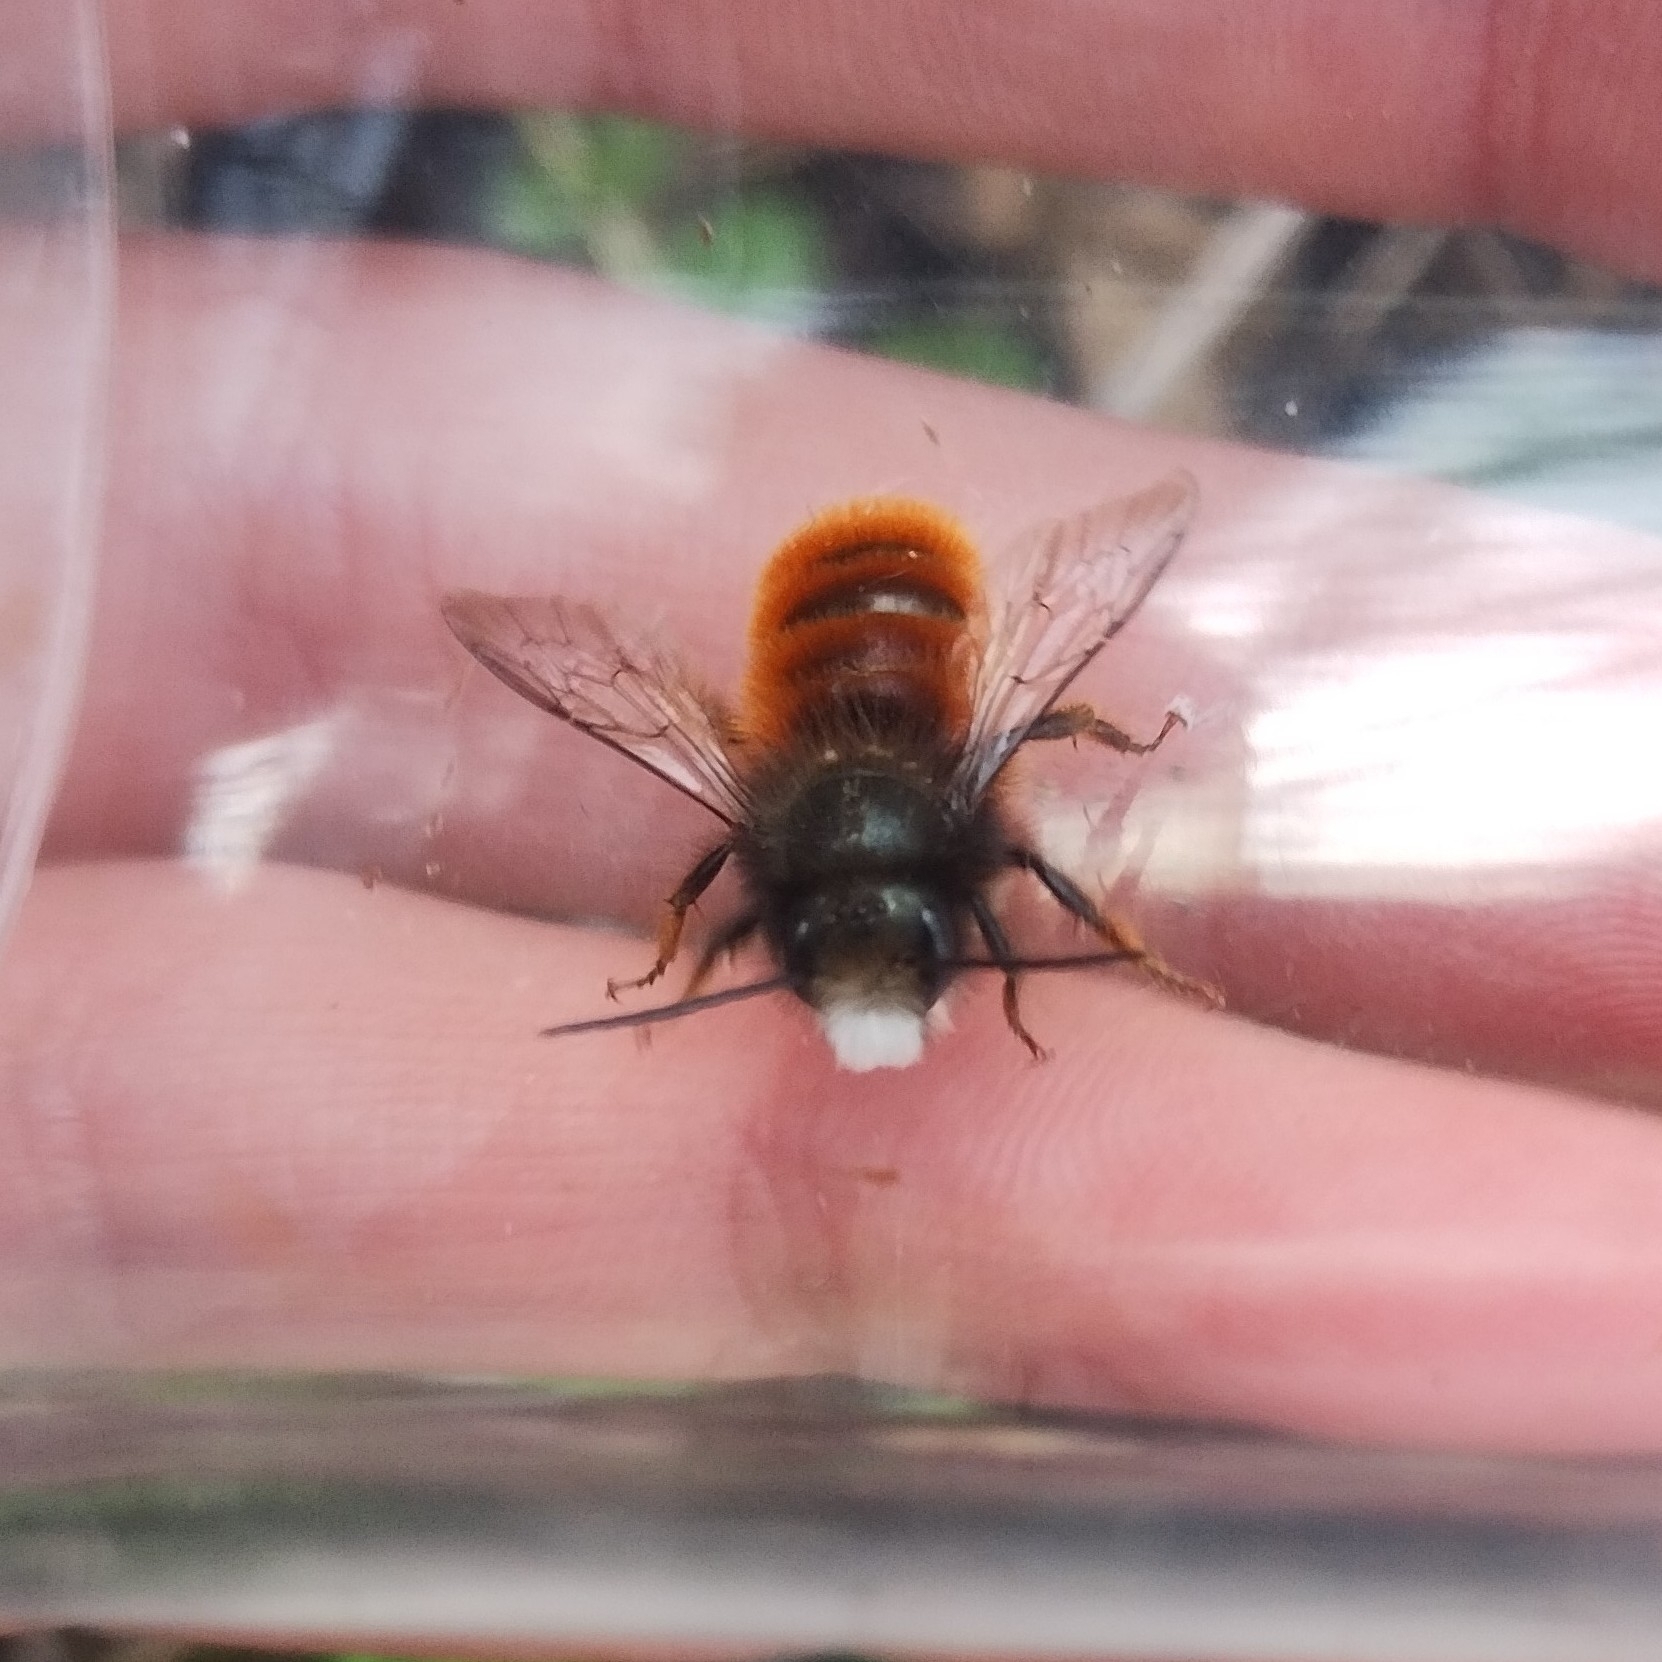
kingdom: Animalia
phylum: Arthropoda
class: Insecta
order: Hymenoptera
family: Megachilidae
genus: Osmia
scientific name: Osmia cornuta
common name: Mason bee
